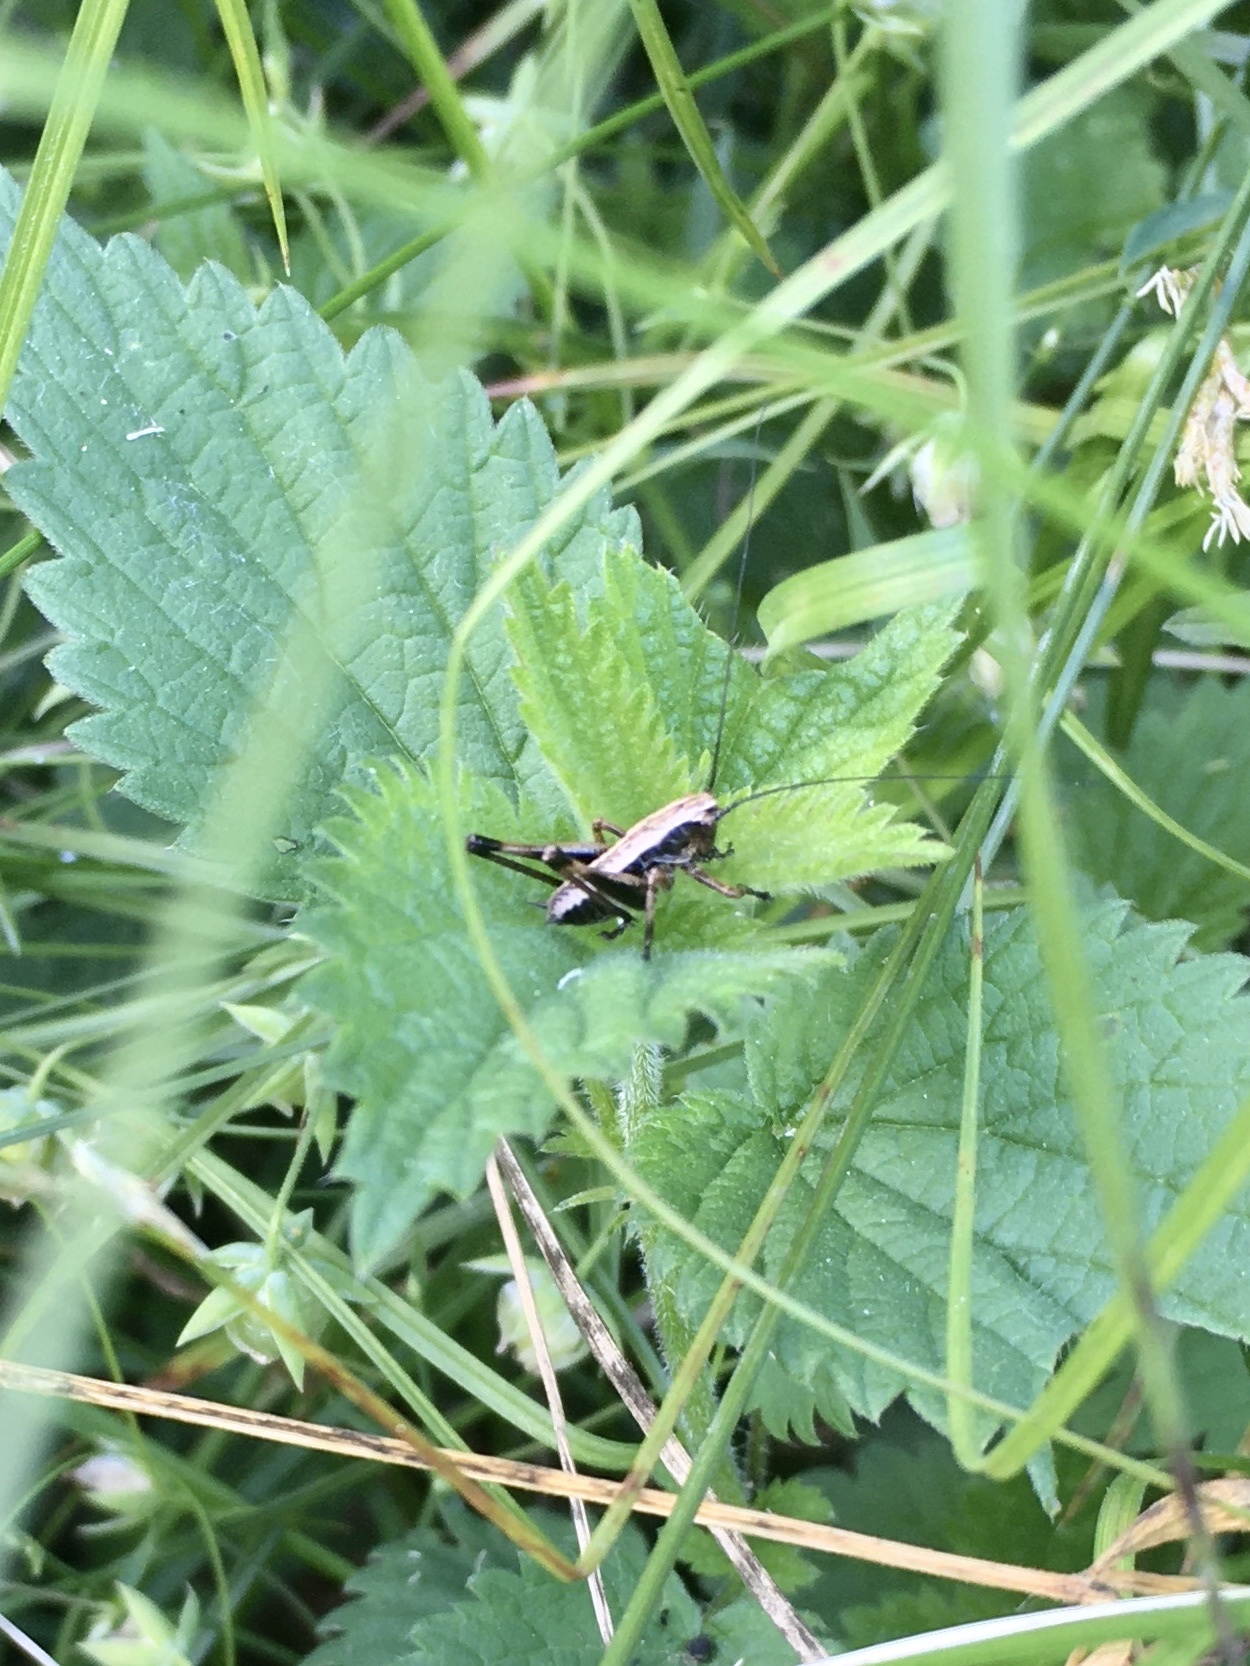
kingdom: Animalia
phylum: Arthropoda
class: Insecta
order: Orthoptera
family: Tettigoniidae
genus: Pholidoptera
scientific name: Pholidoptera griseoaptera
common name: Dark bush-cricket
